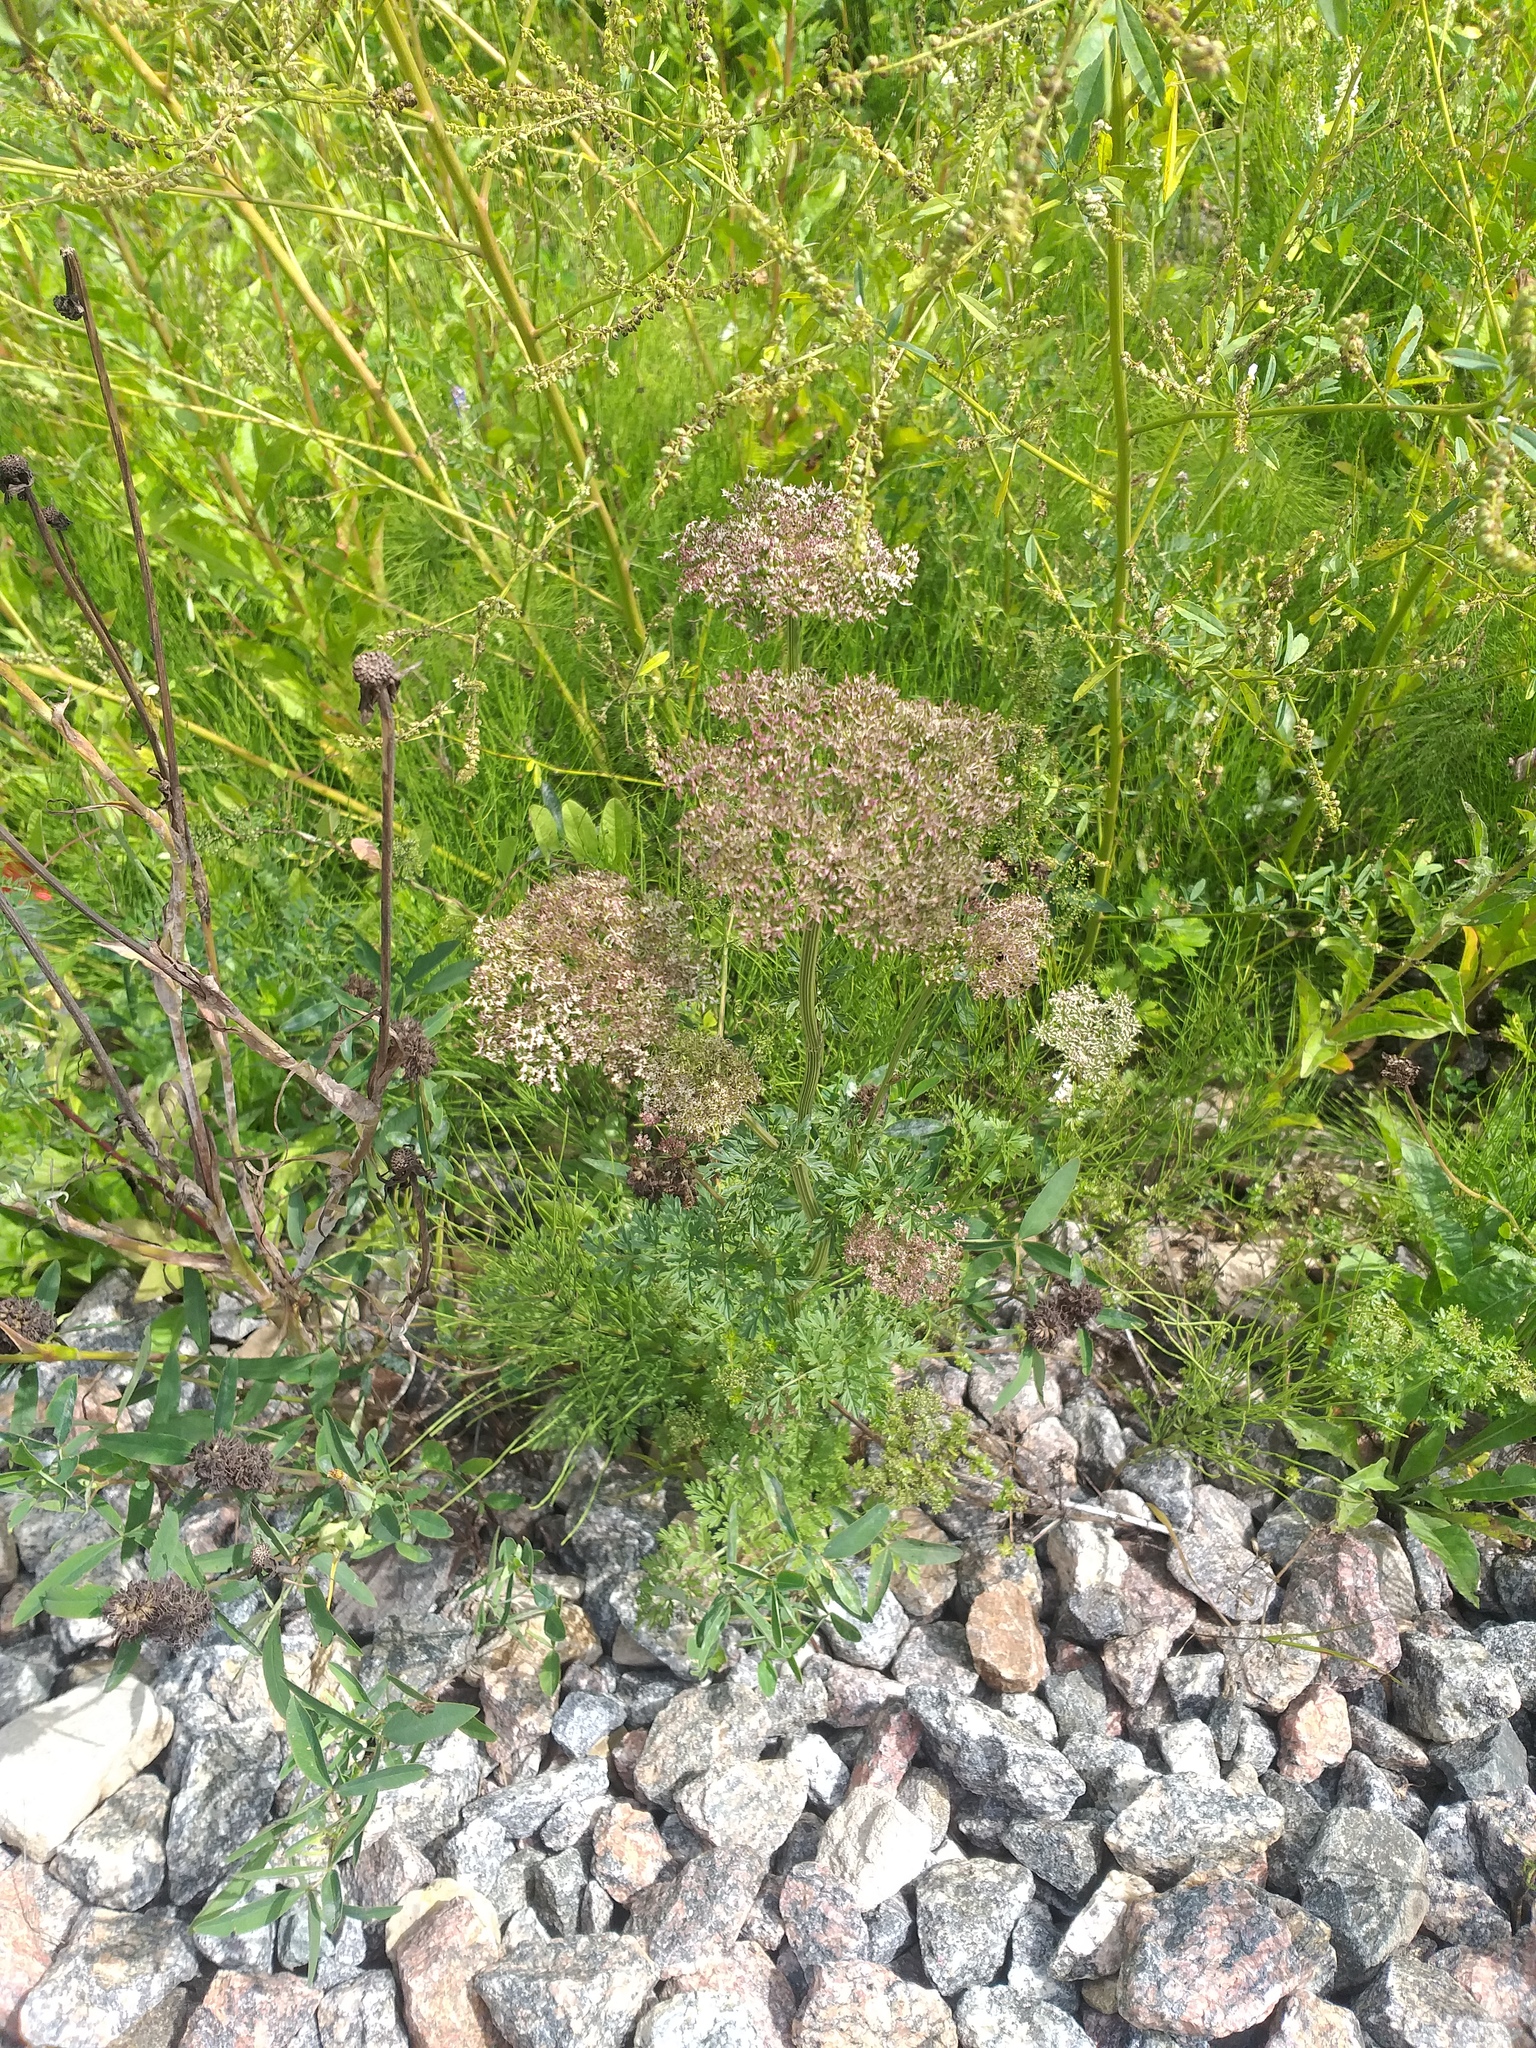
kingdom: Plantae
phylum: Tracheophyta
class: Magnoliopsida
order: Apiales
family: Apiaceae
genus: Selinum
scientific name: Selinum carvifolia
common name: Cambridge milk-parsley
